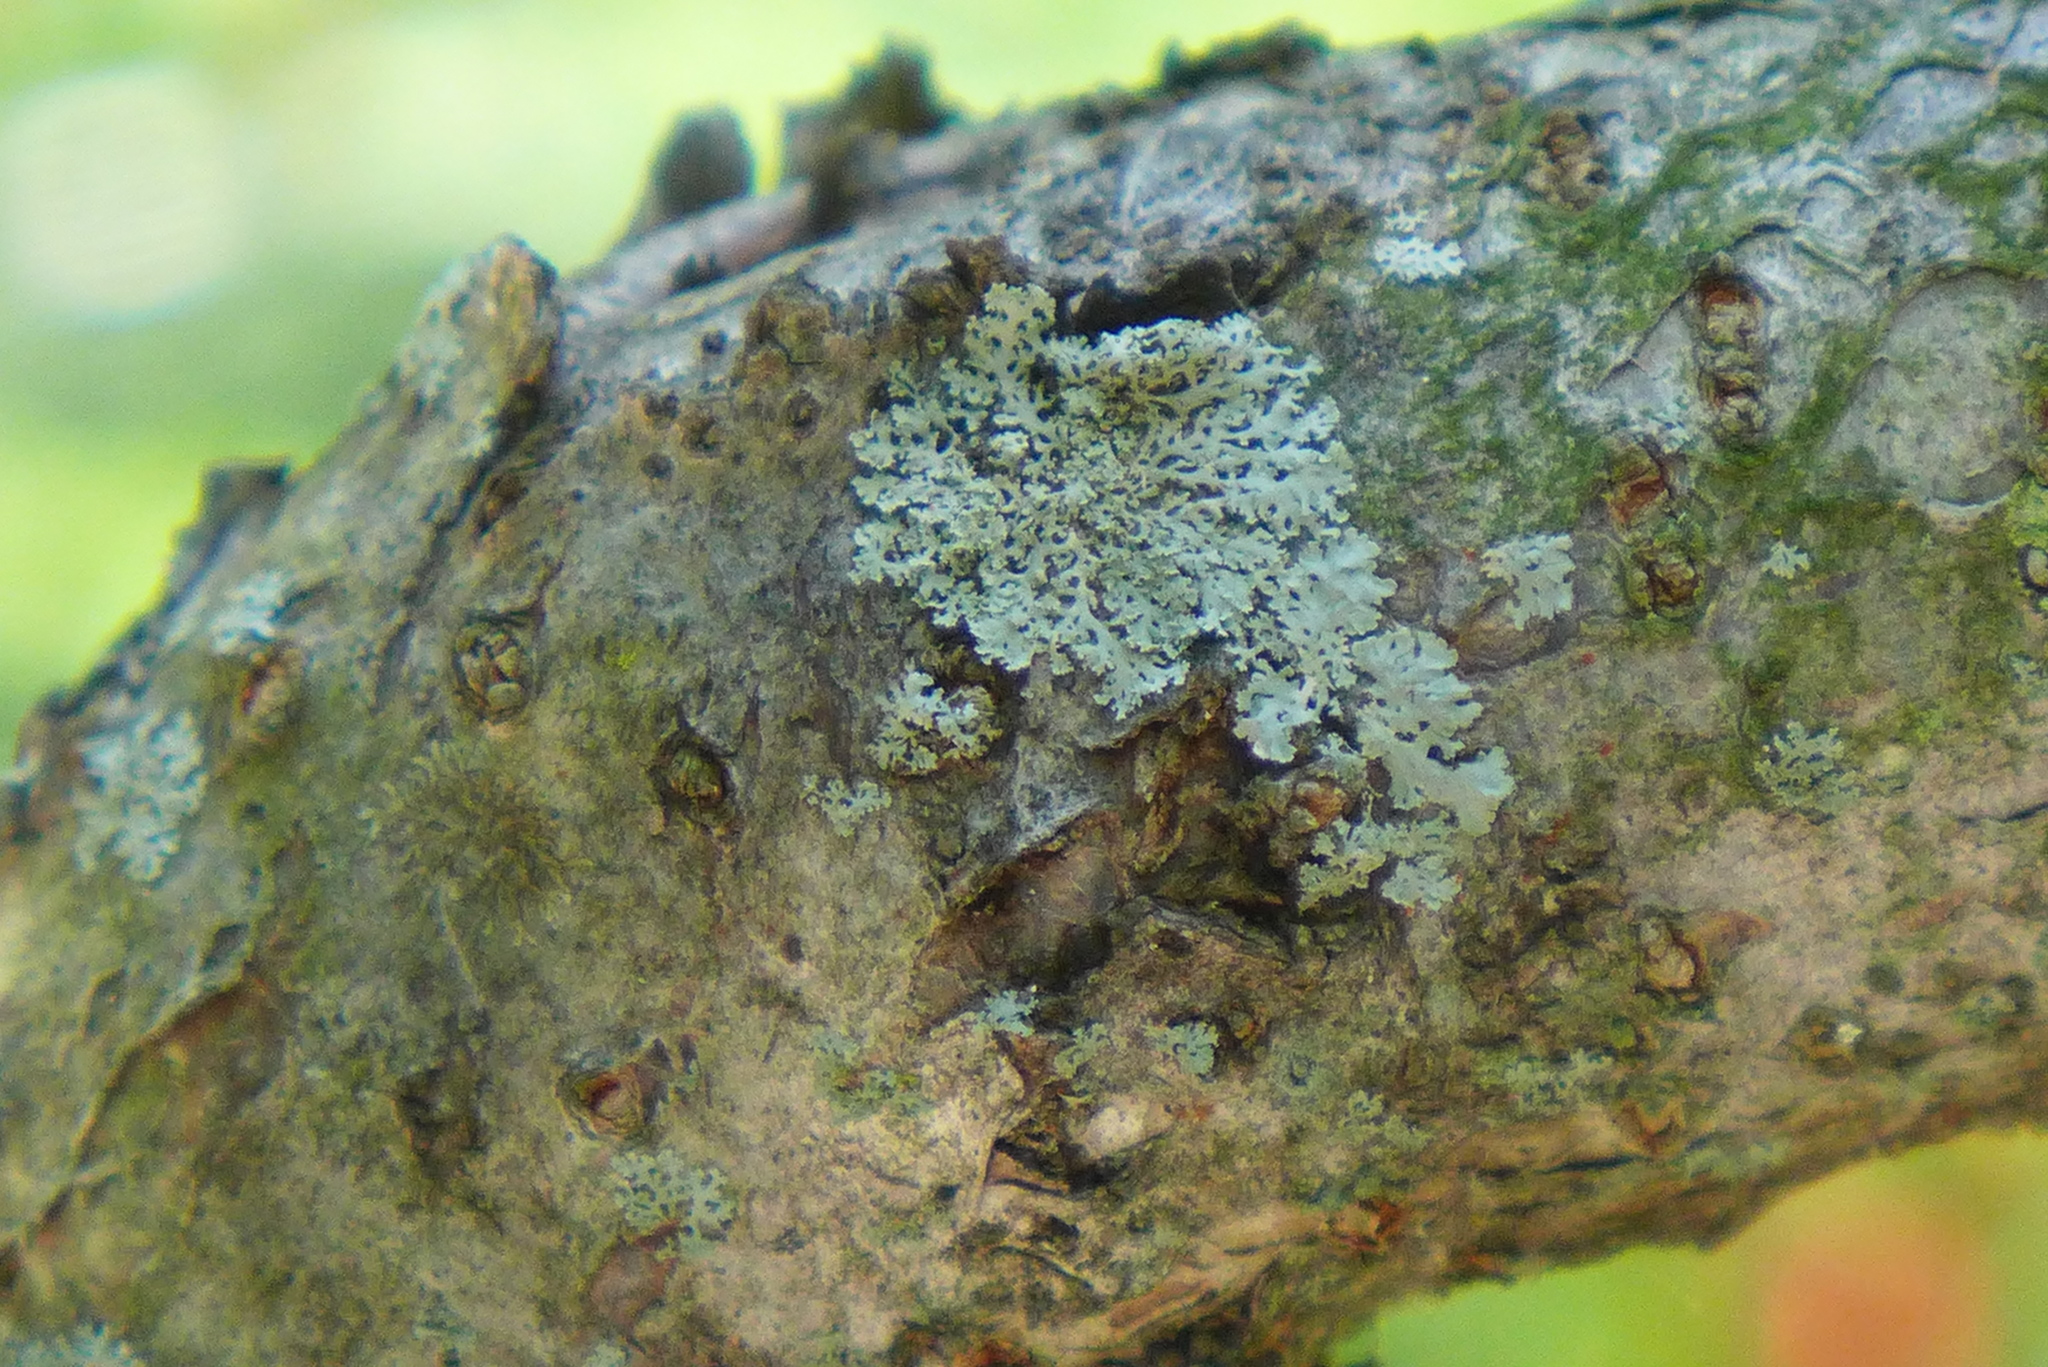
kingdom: Fungi
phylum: Ascomycota
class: Lecanoromycetes
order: Caliciales
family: Physciaceae
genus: Physcia
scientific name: Physcia millegrana
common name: Rosette lichen
